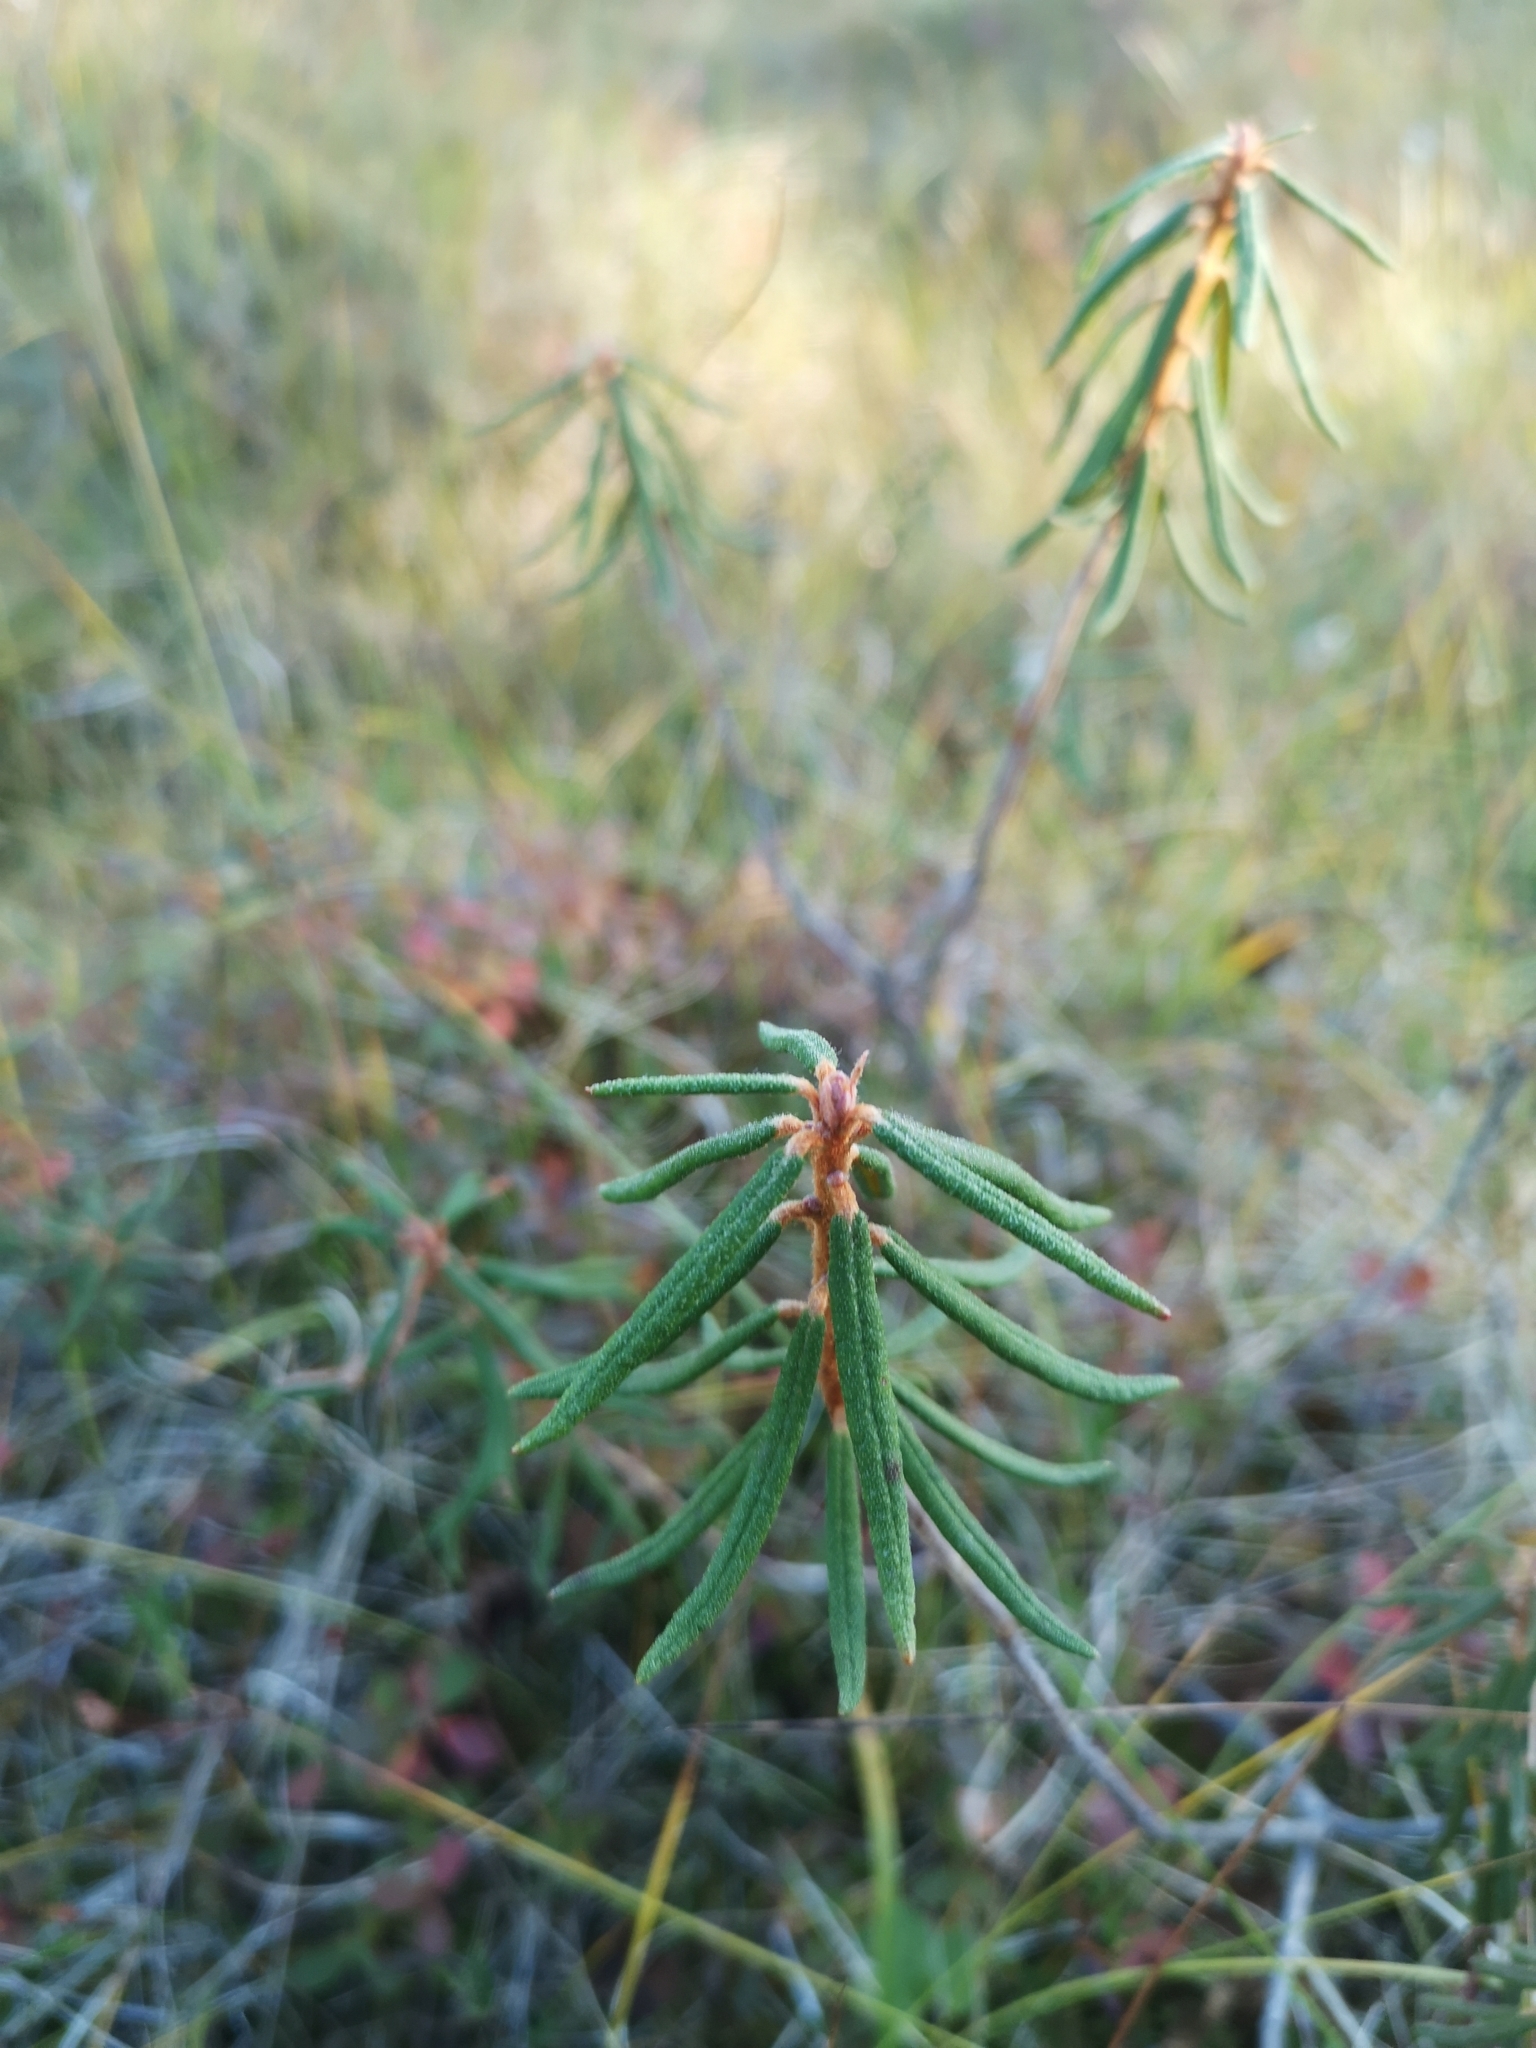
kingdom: Plantae
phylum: Tracheophyta
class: Magnoliopsida
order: Ericales
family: Ericaceae
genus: Rhododendron
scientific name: Rhododendron tomentosum
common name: Marsh labrador tea
